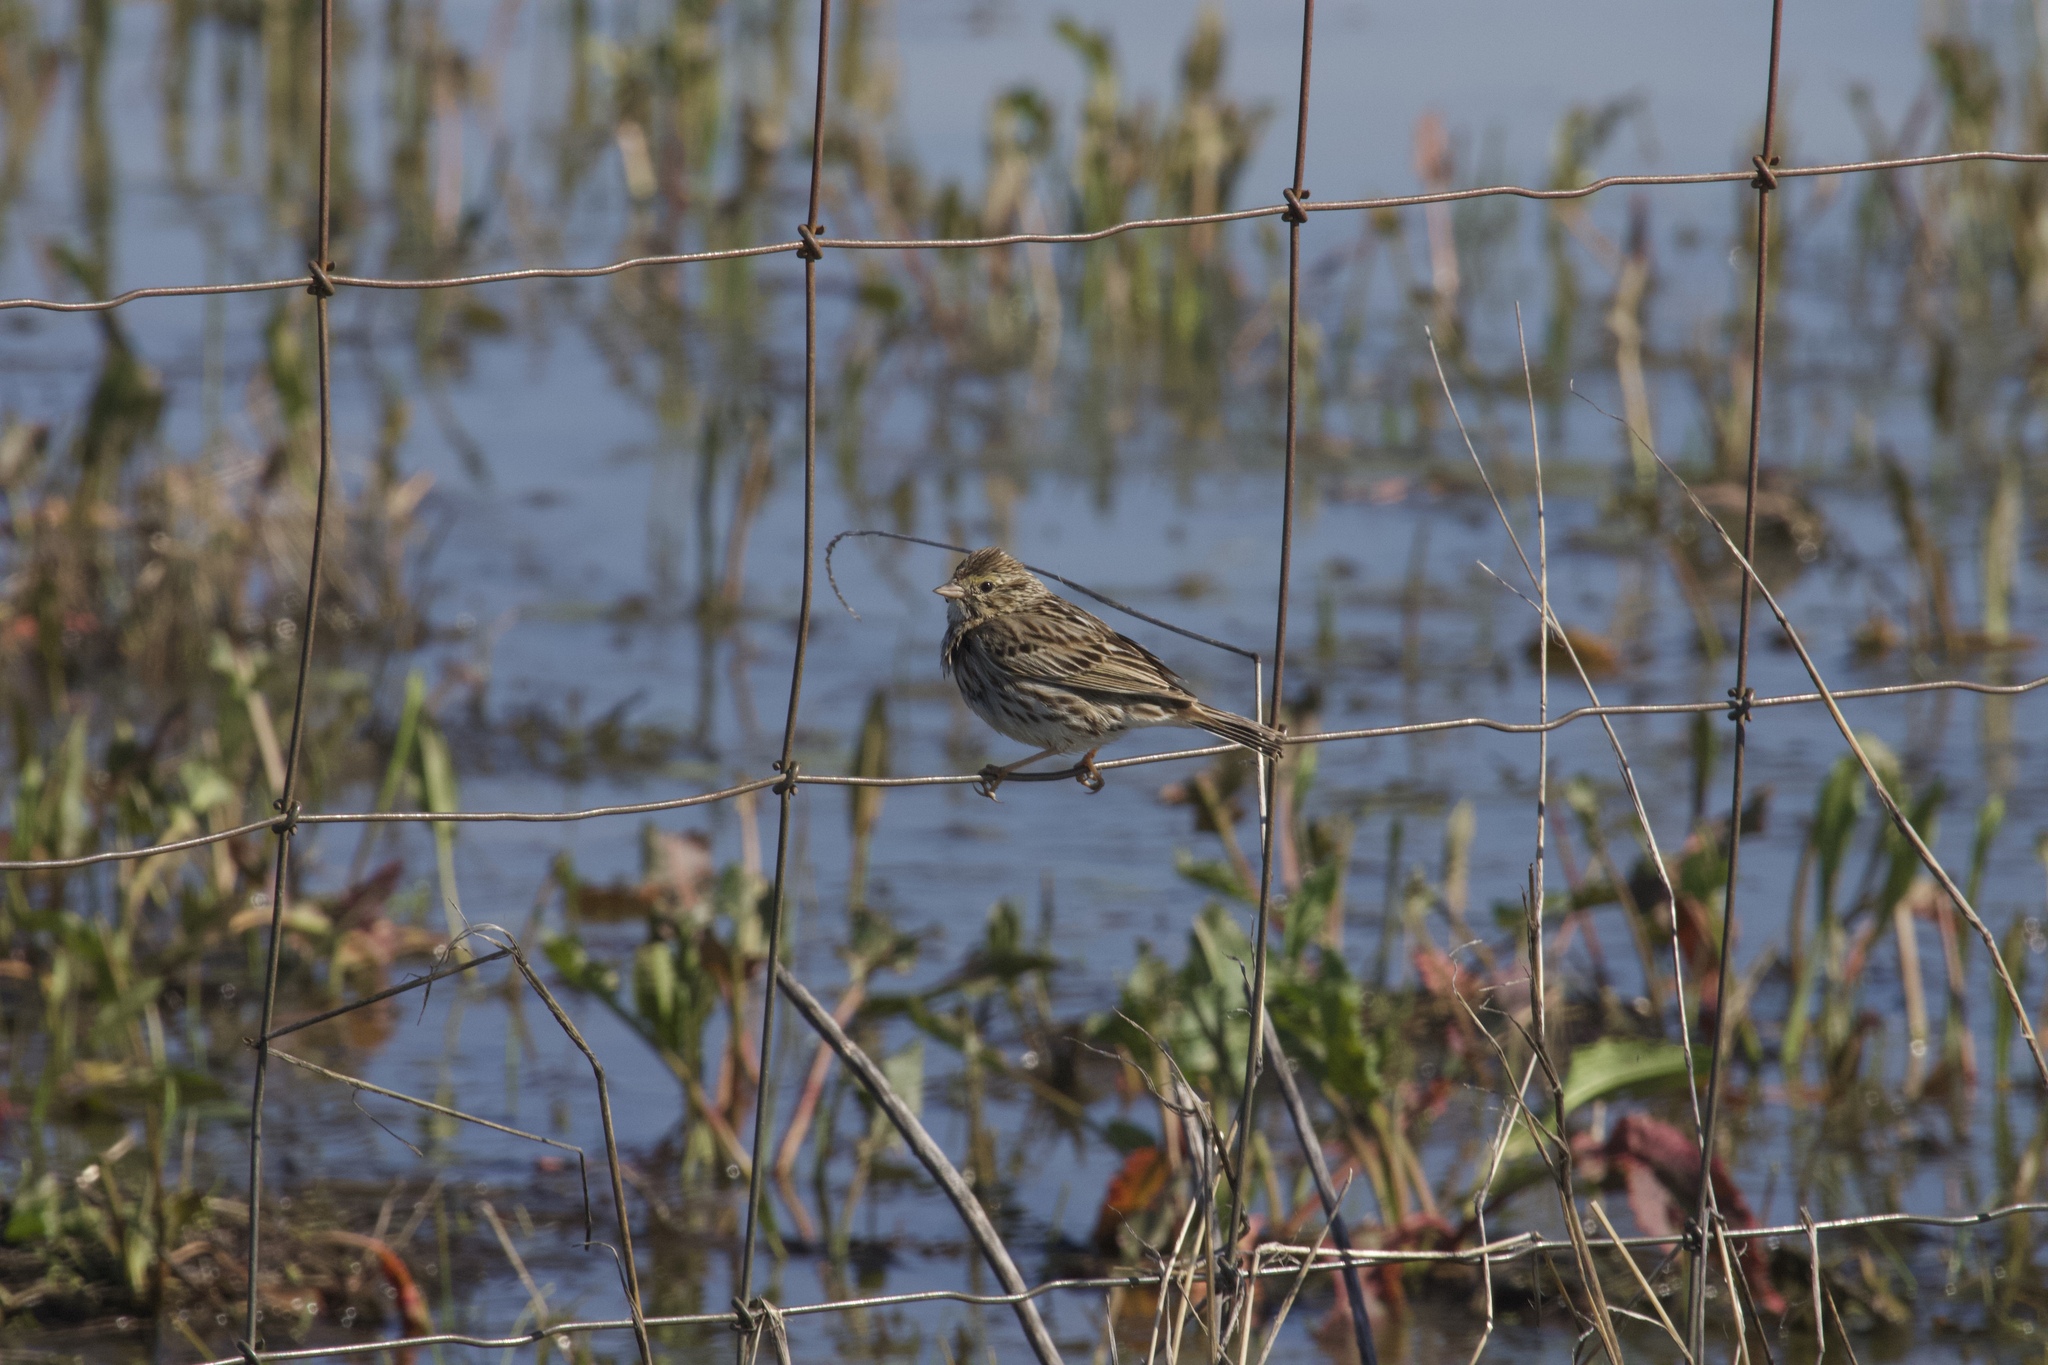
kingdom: Animalia
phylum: Chordata
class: Aves
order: Passeriformes
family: Passerellidae
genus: Passerculus
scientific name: Passerculus sandwichensis
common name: Savannah sparrow
